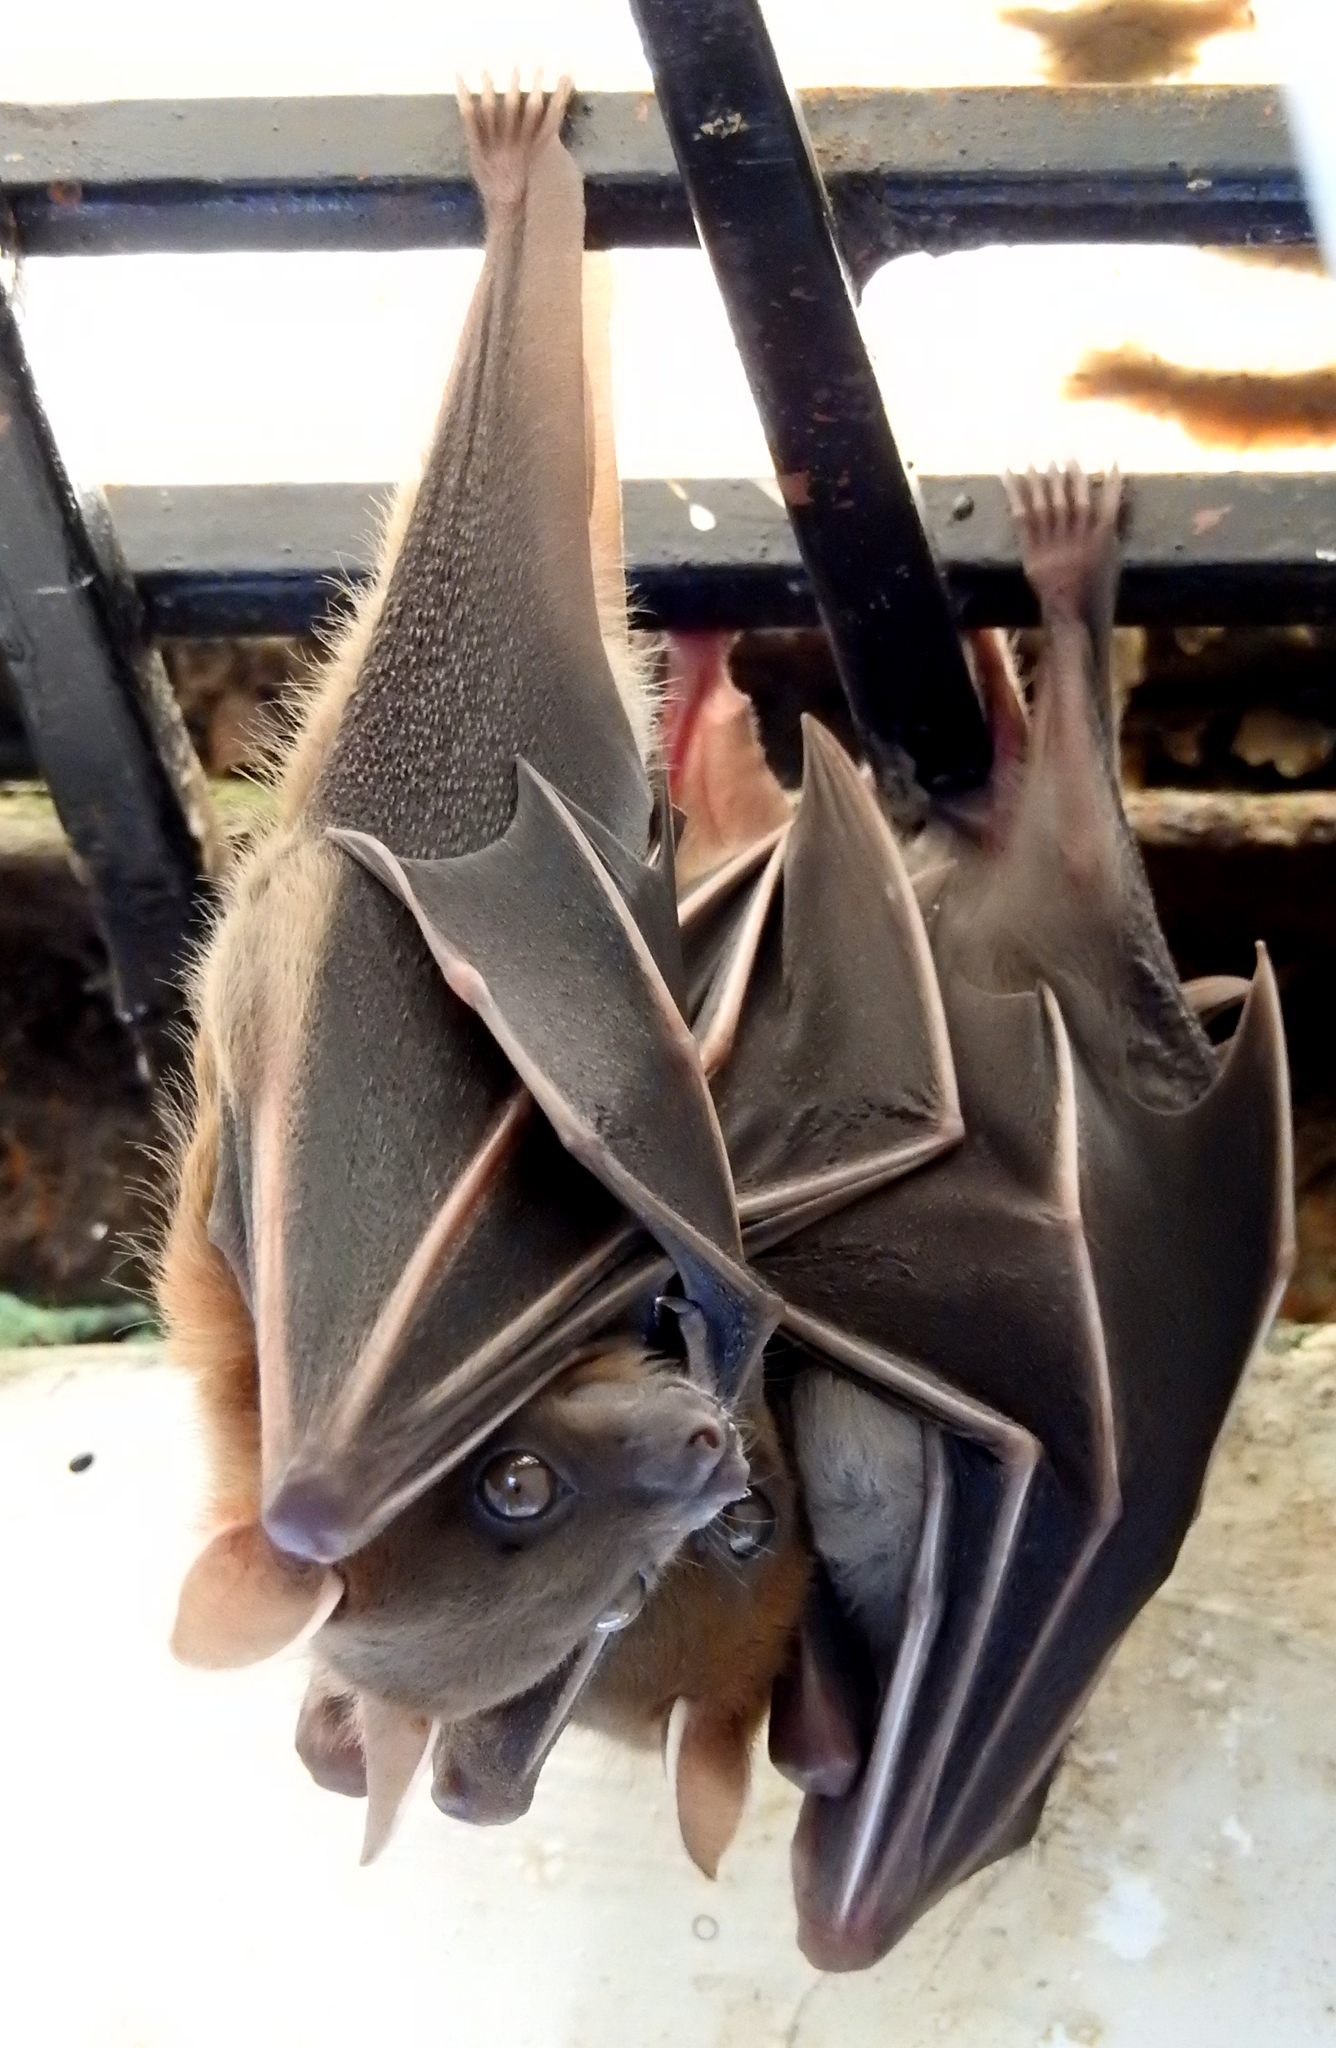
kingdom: Animalia
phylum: Chordata
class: Mammalia
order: Chiroptera
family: Pteropodidae
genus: Cynopterus
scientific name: Cynopterus sphinx
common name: Greater short-nosed fruit bat
